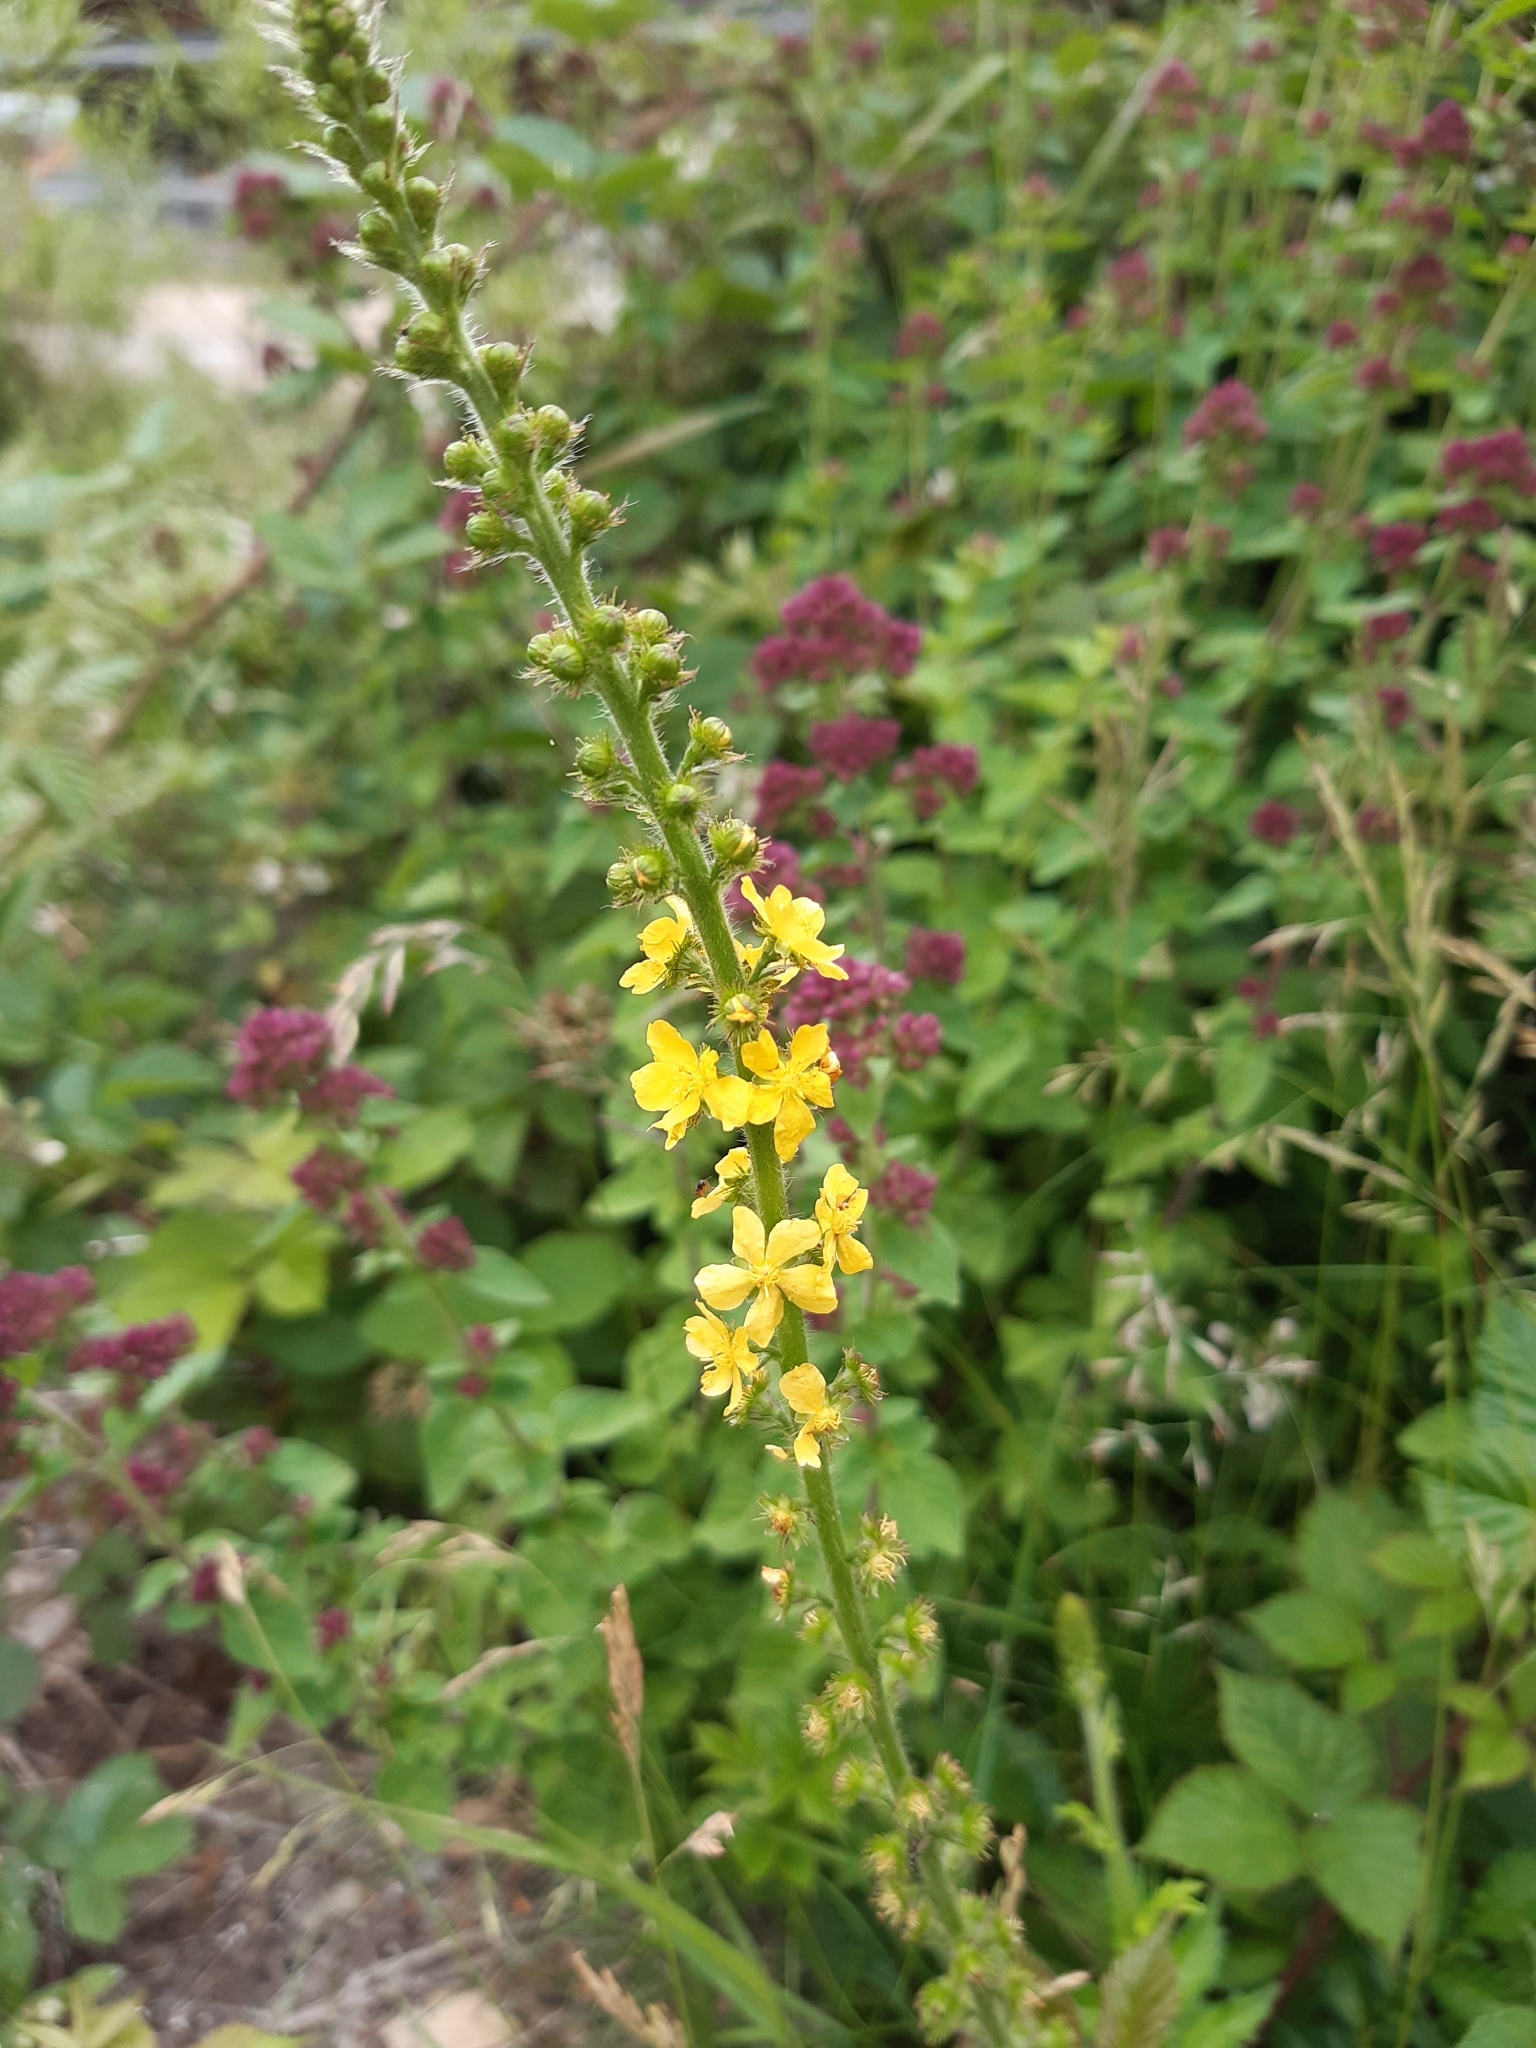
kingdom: Plantae
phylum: Tracheophyta
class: Magnoliopsida
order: Rosales
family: Rosaceae
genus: Agrimonia
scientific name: Agrimonia eupatoria
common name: Agrimony
